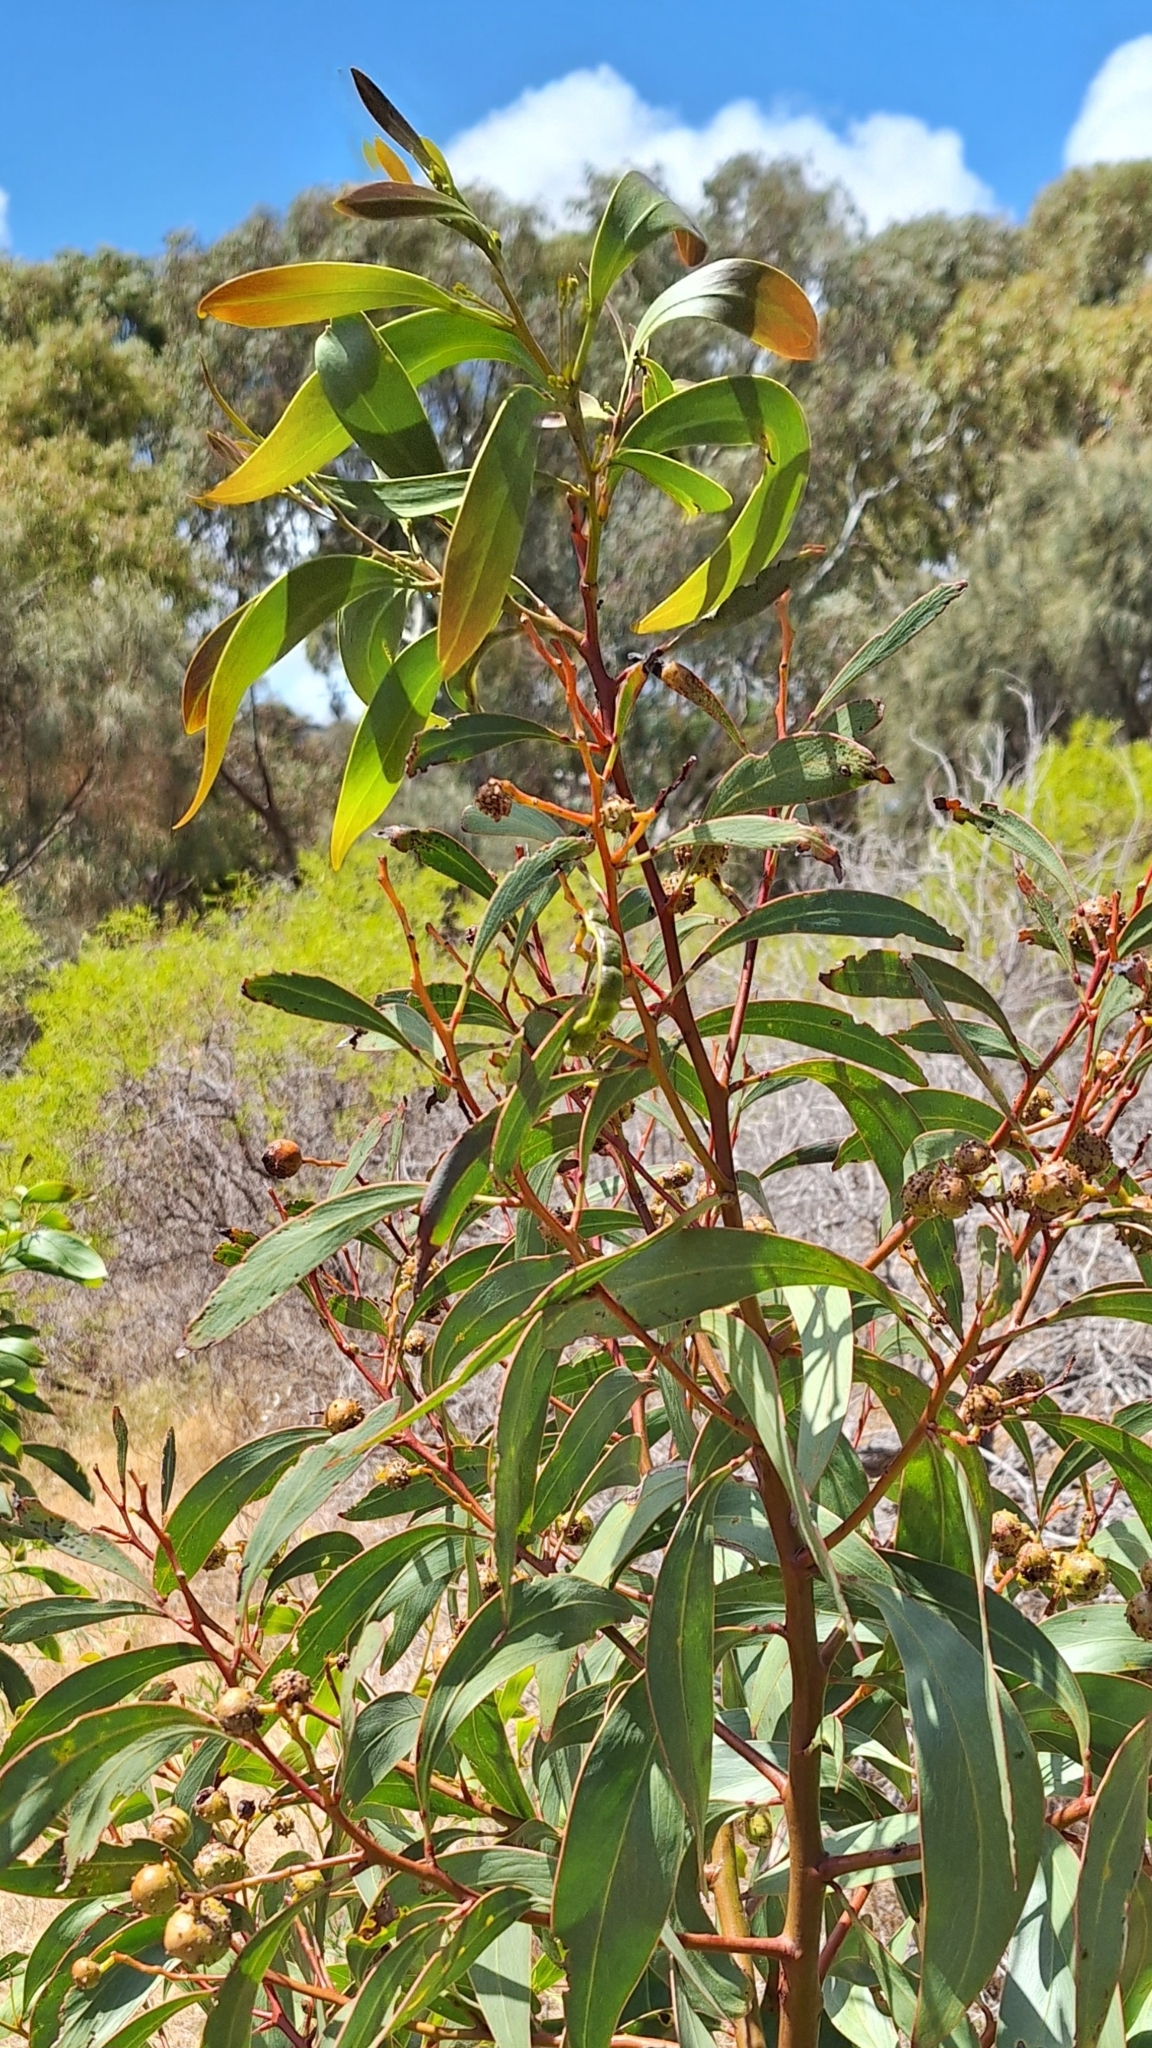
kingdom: Plantae
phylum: Tracheophyta
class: Magnoliopsida
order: Fabales
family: Fabaceae
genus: Acacia
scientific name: Acacia pycnantha
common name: Golden wattle
